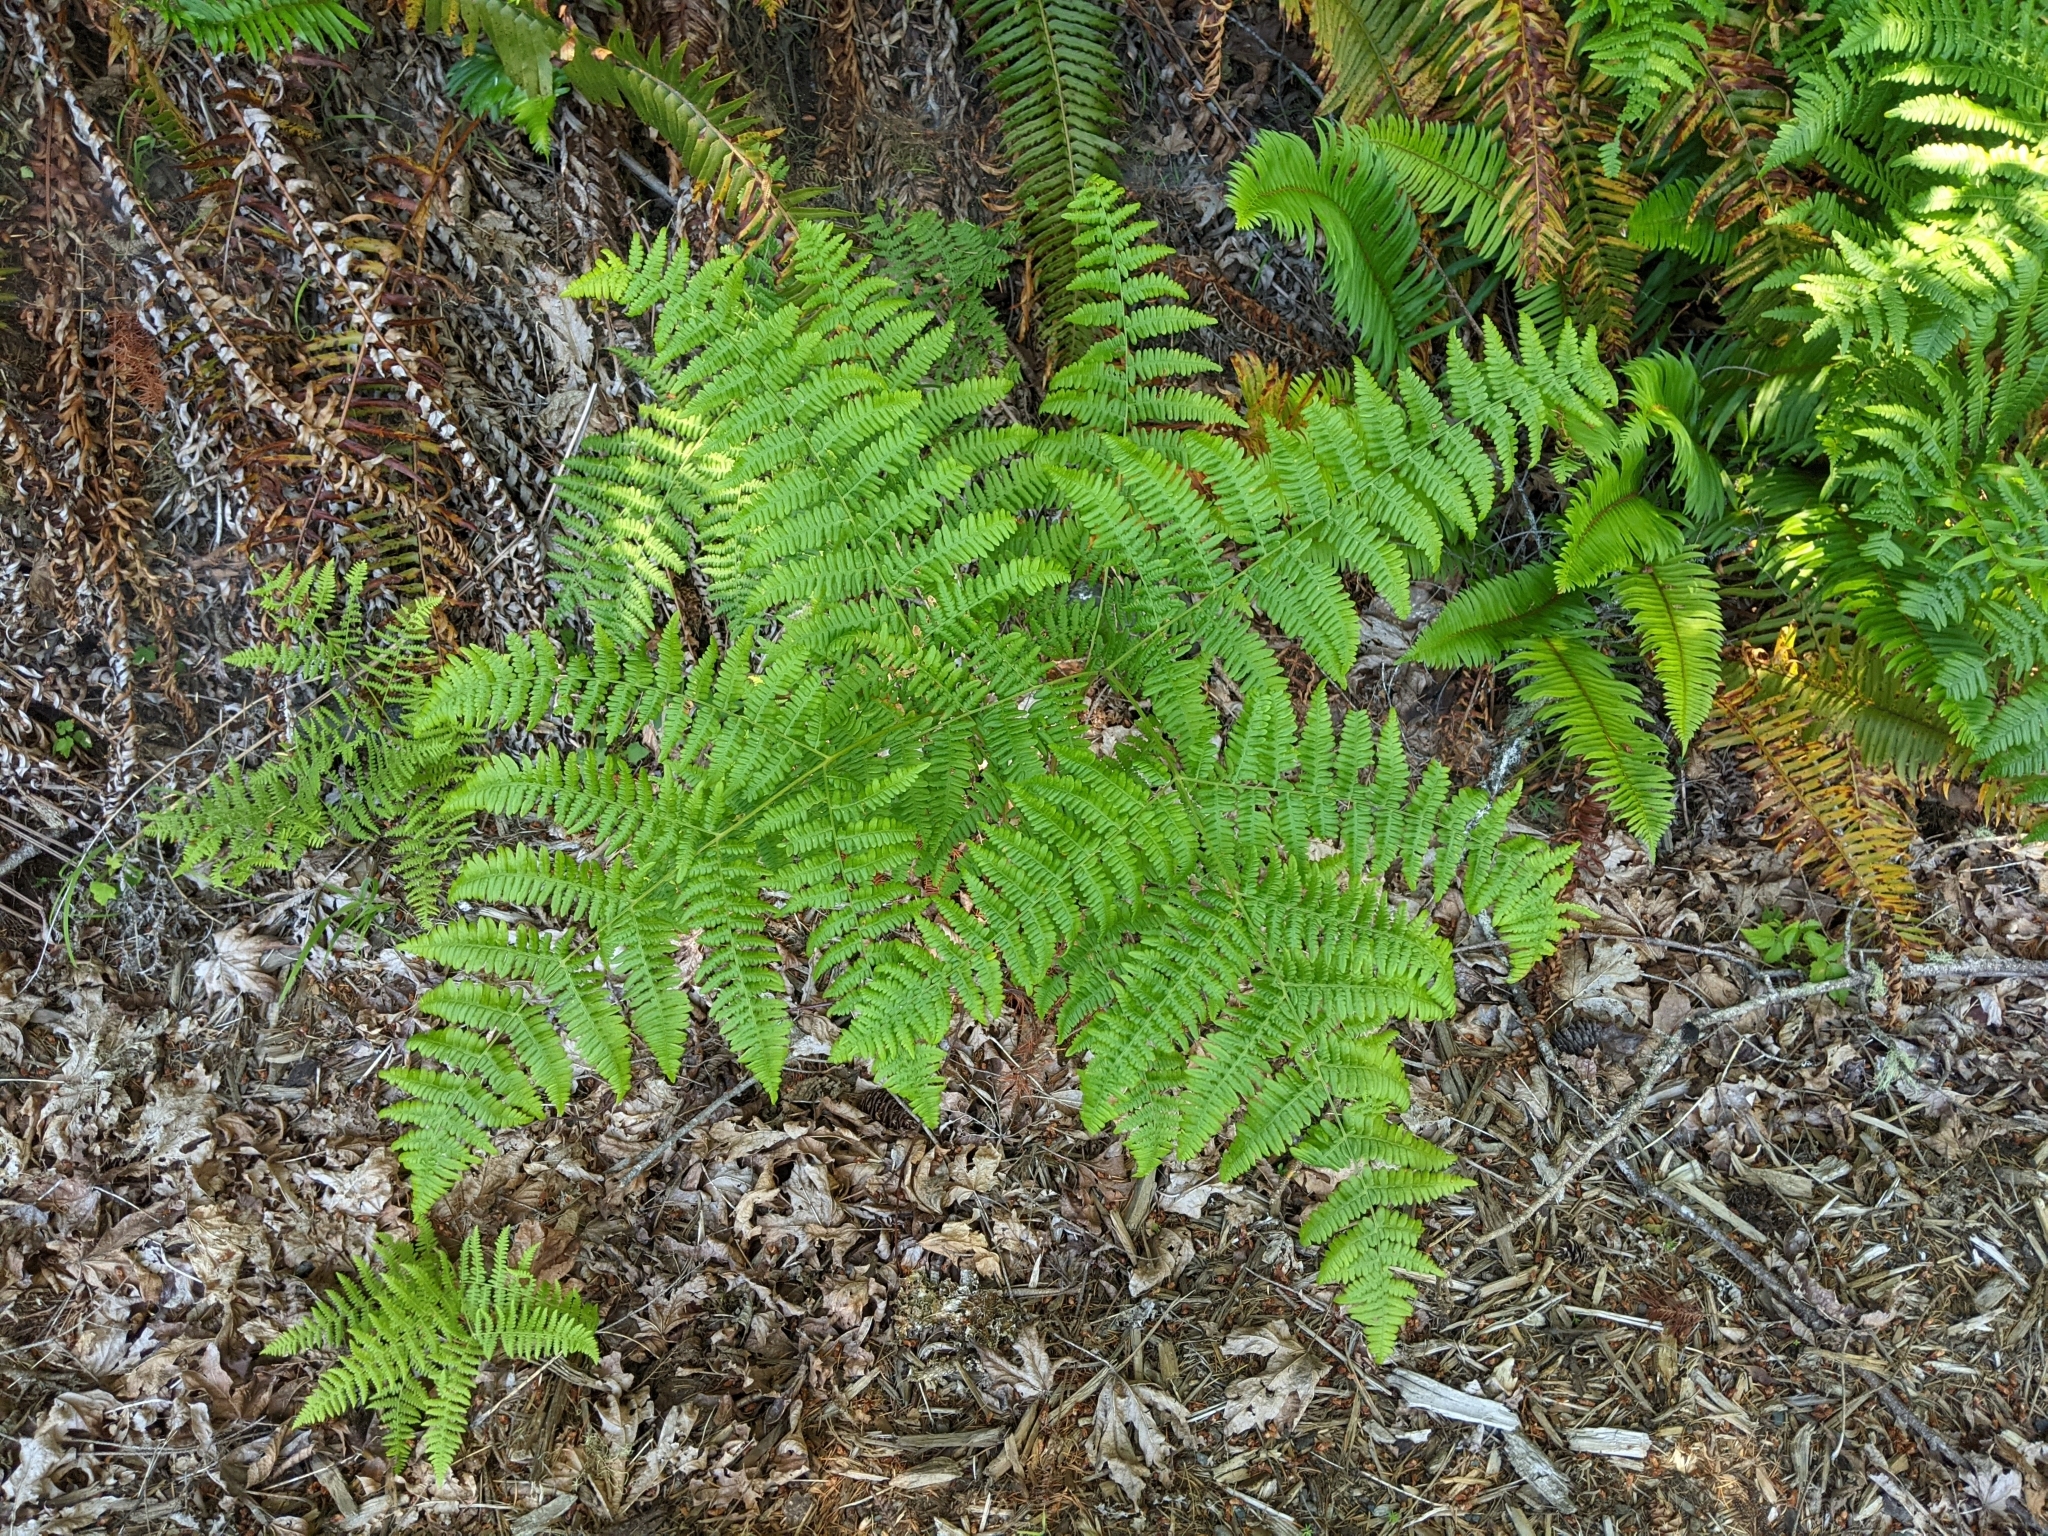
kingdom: Plantae
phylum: Tracheophyta
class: Polypodiopsida
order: Polypodiales
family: Dennstaedtiaceae
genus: Pteridium
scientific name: Pteridium aquilinum
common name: Bracken
